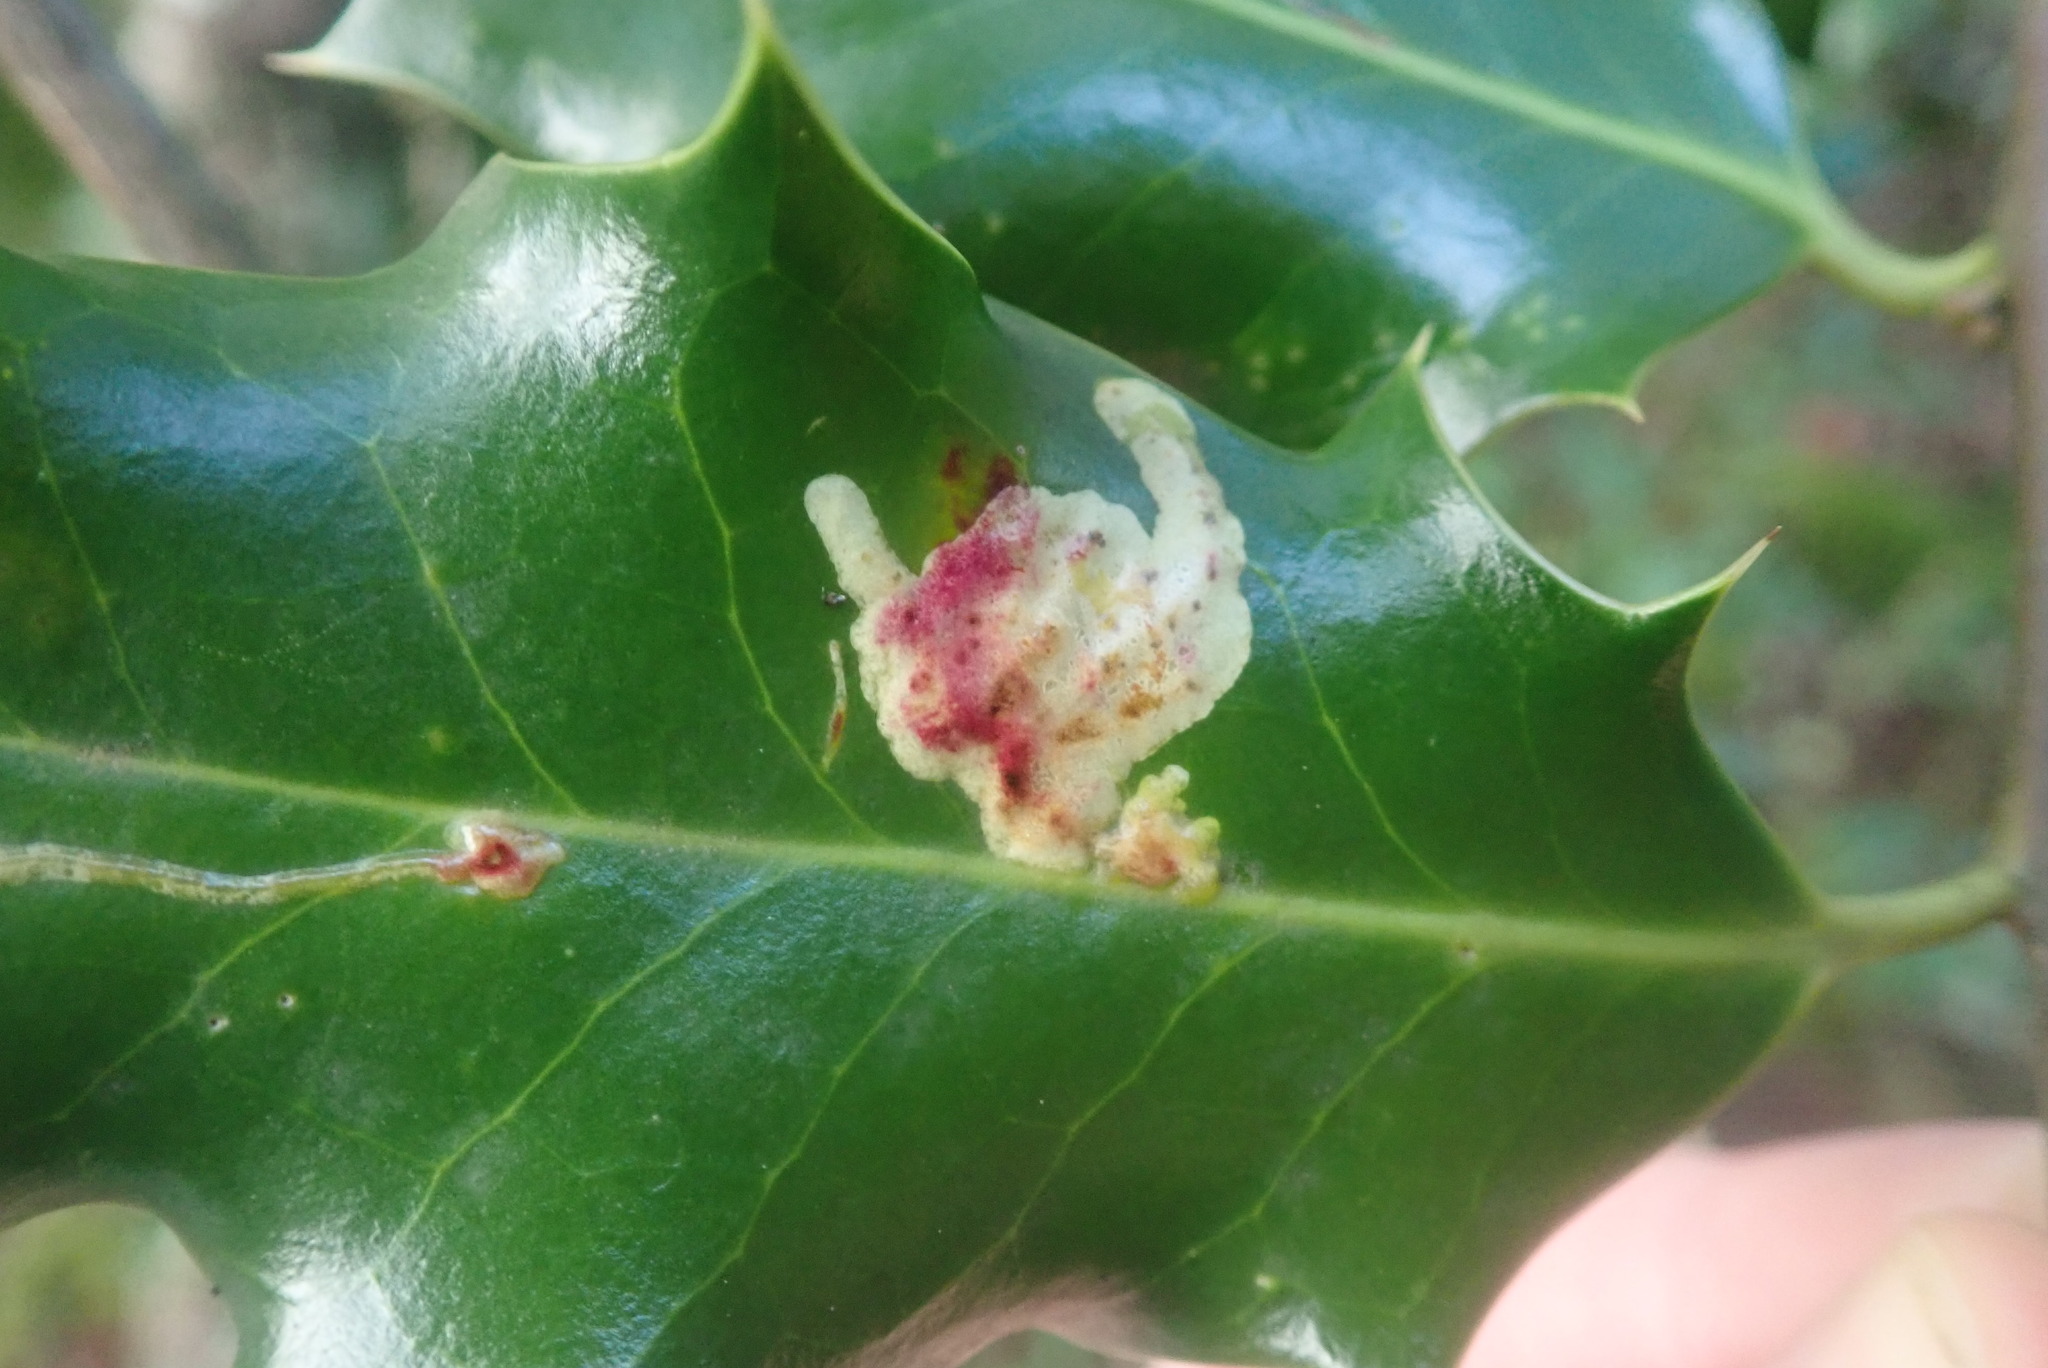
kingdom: Animalia
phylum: Arthropoda
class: Insecta
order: Diptera
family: Agromyzidae
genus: Phytomyza
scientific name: Phytomyza ilicis
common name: Holly leafminer
